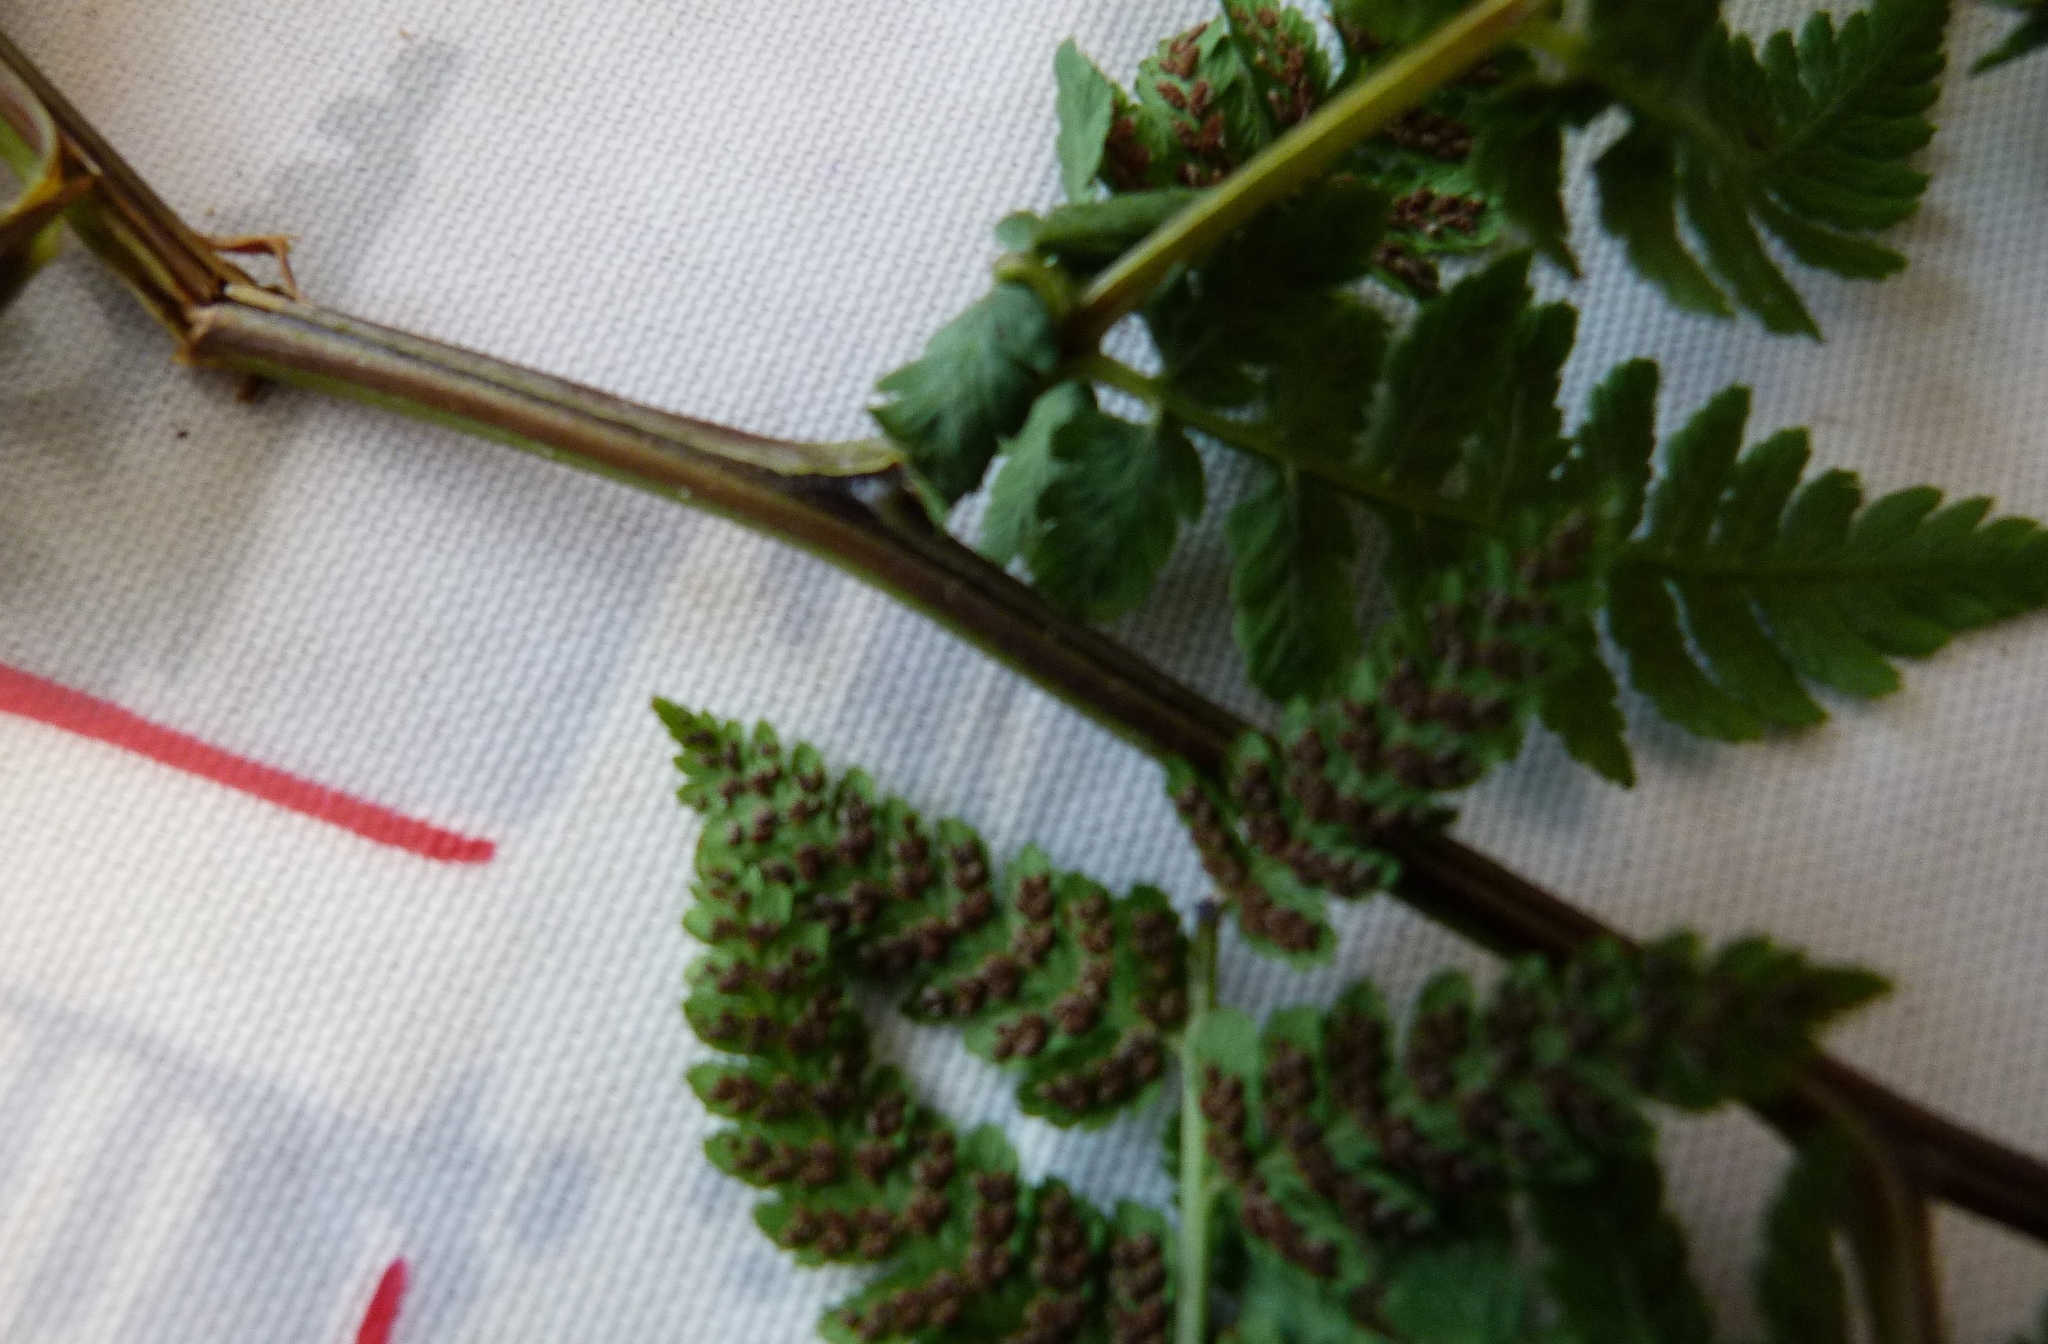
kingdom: Plantae
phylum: Tracheophyta
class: Polypodiopsida
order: Polypodiales
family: Athyriaceae
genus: Diplazium
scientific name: Diplazium australe
